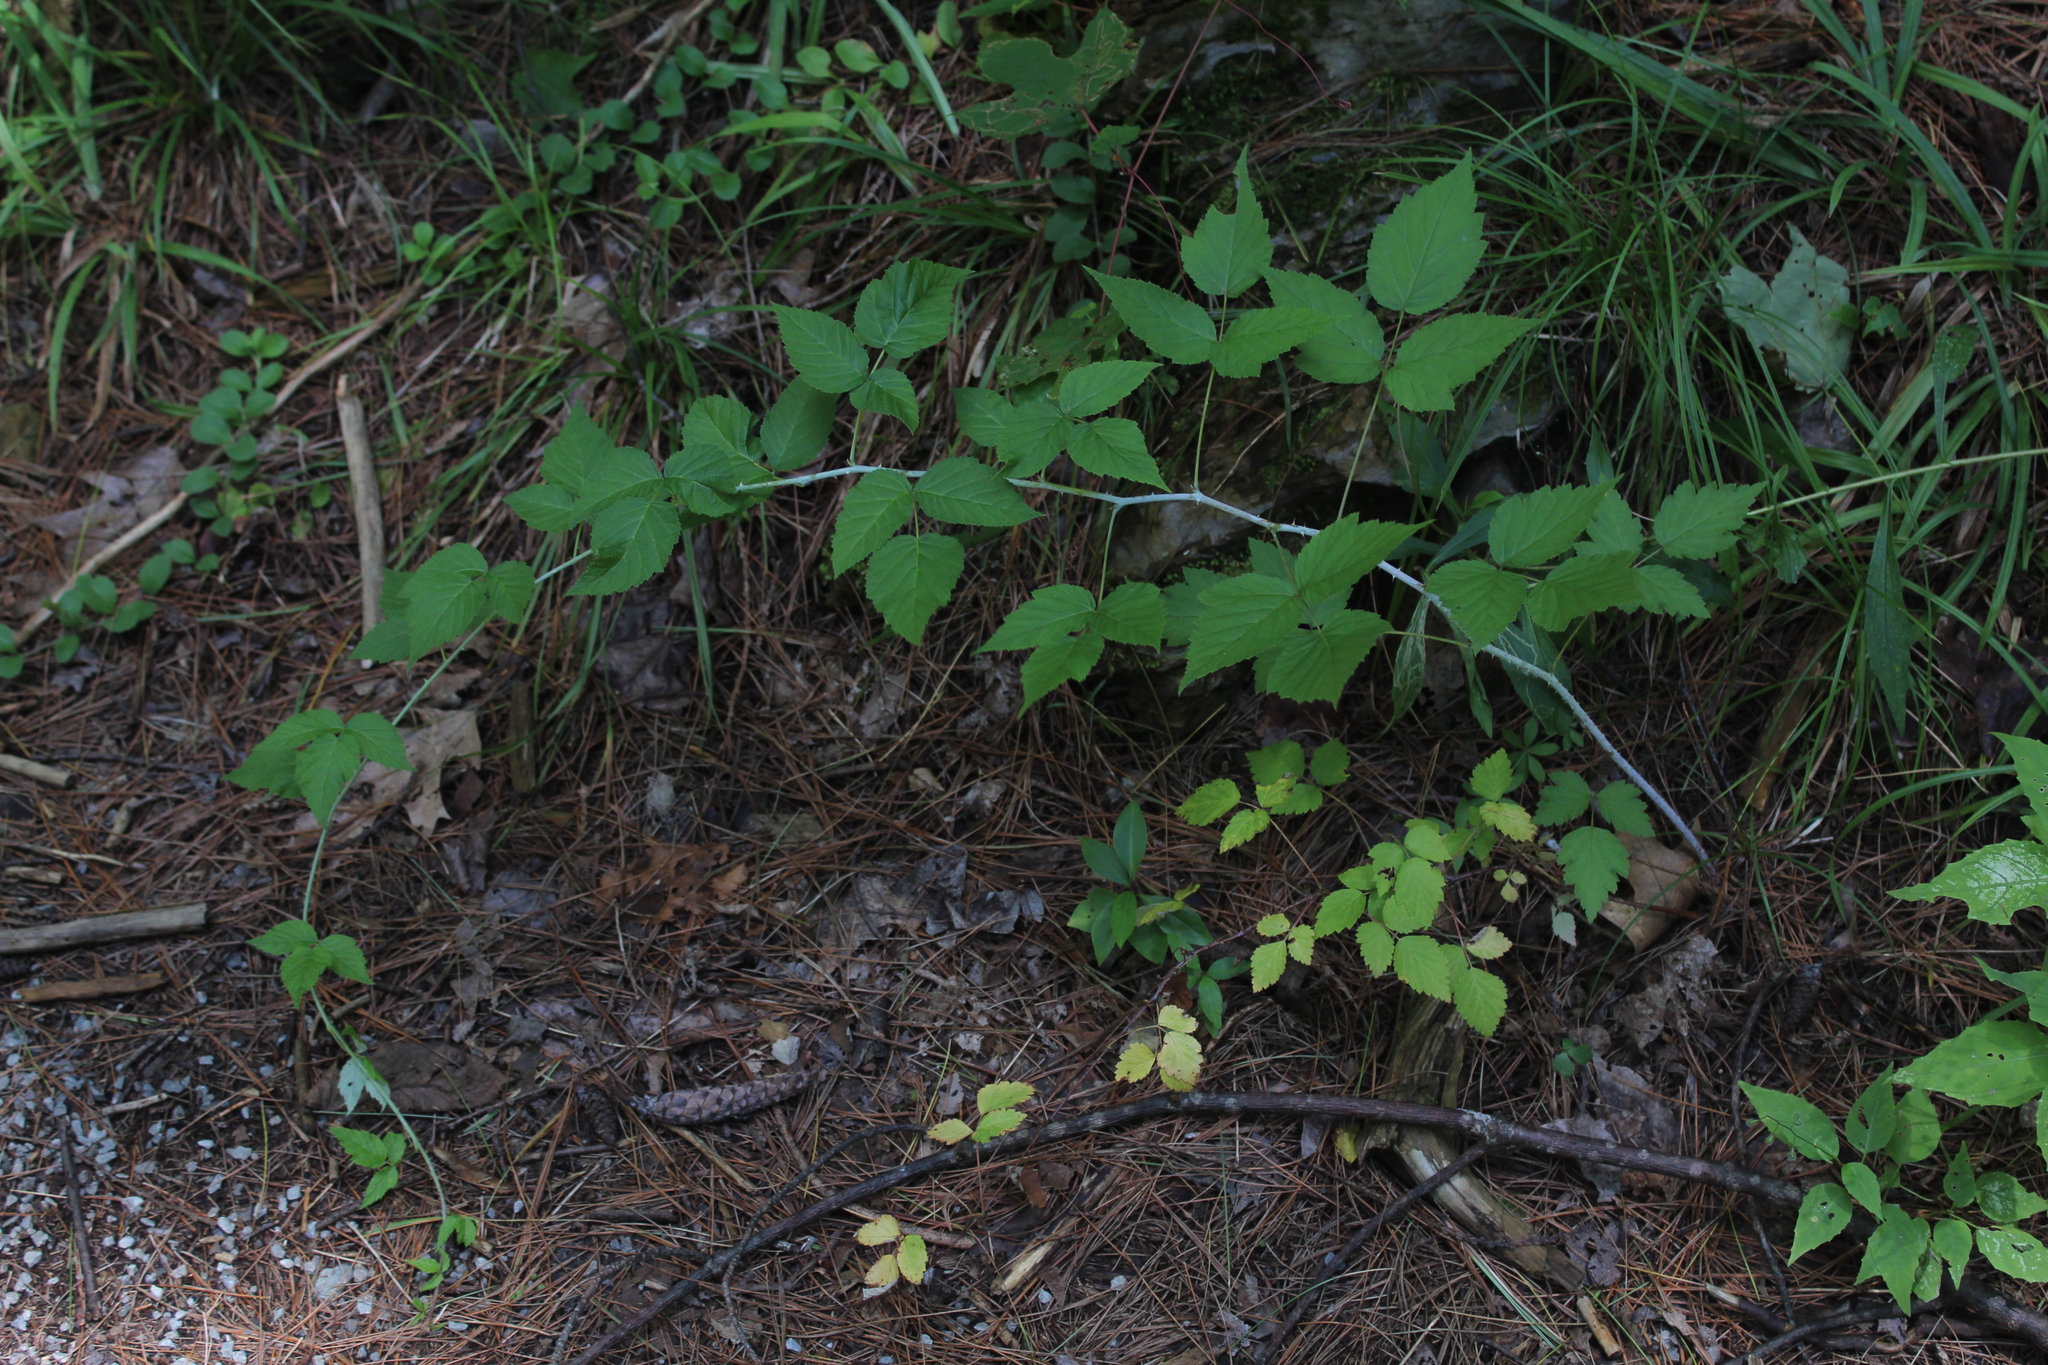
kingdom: Plantae
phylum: Tracheophyta
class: Magnoliopsida
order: Rosales
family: Rosaceae
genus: Rubus
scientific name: Rubus occidentalis
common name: Black raspberry
